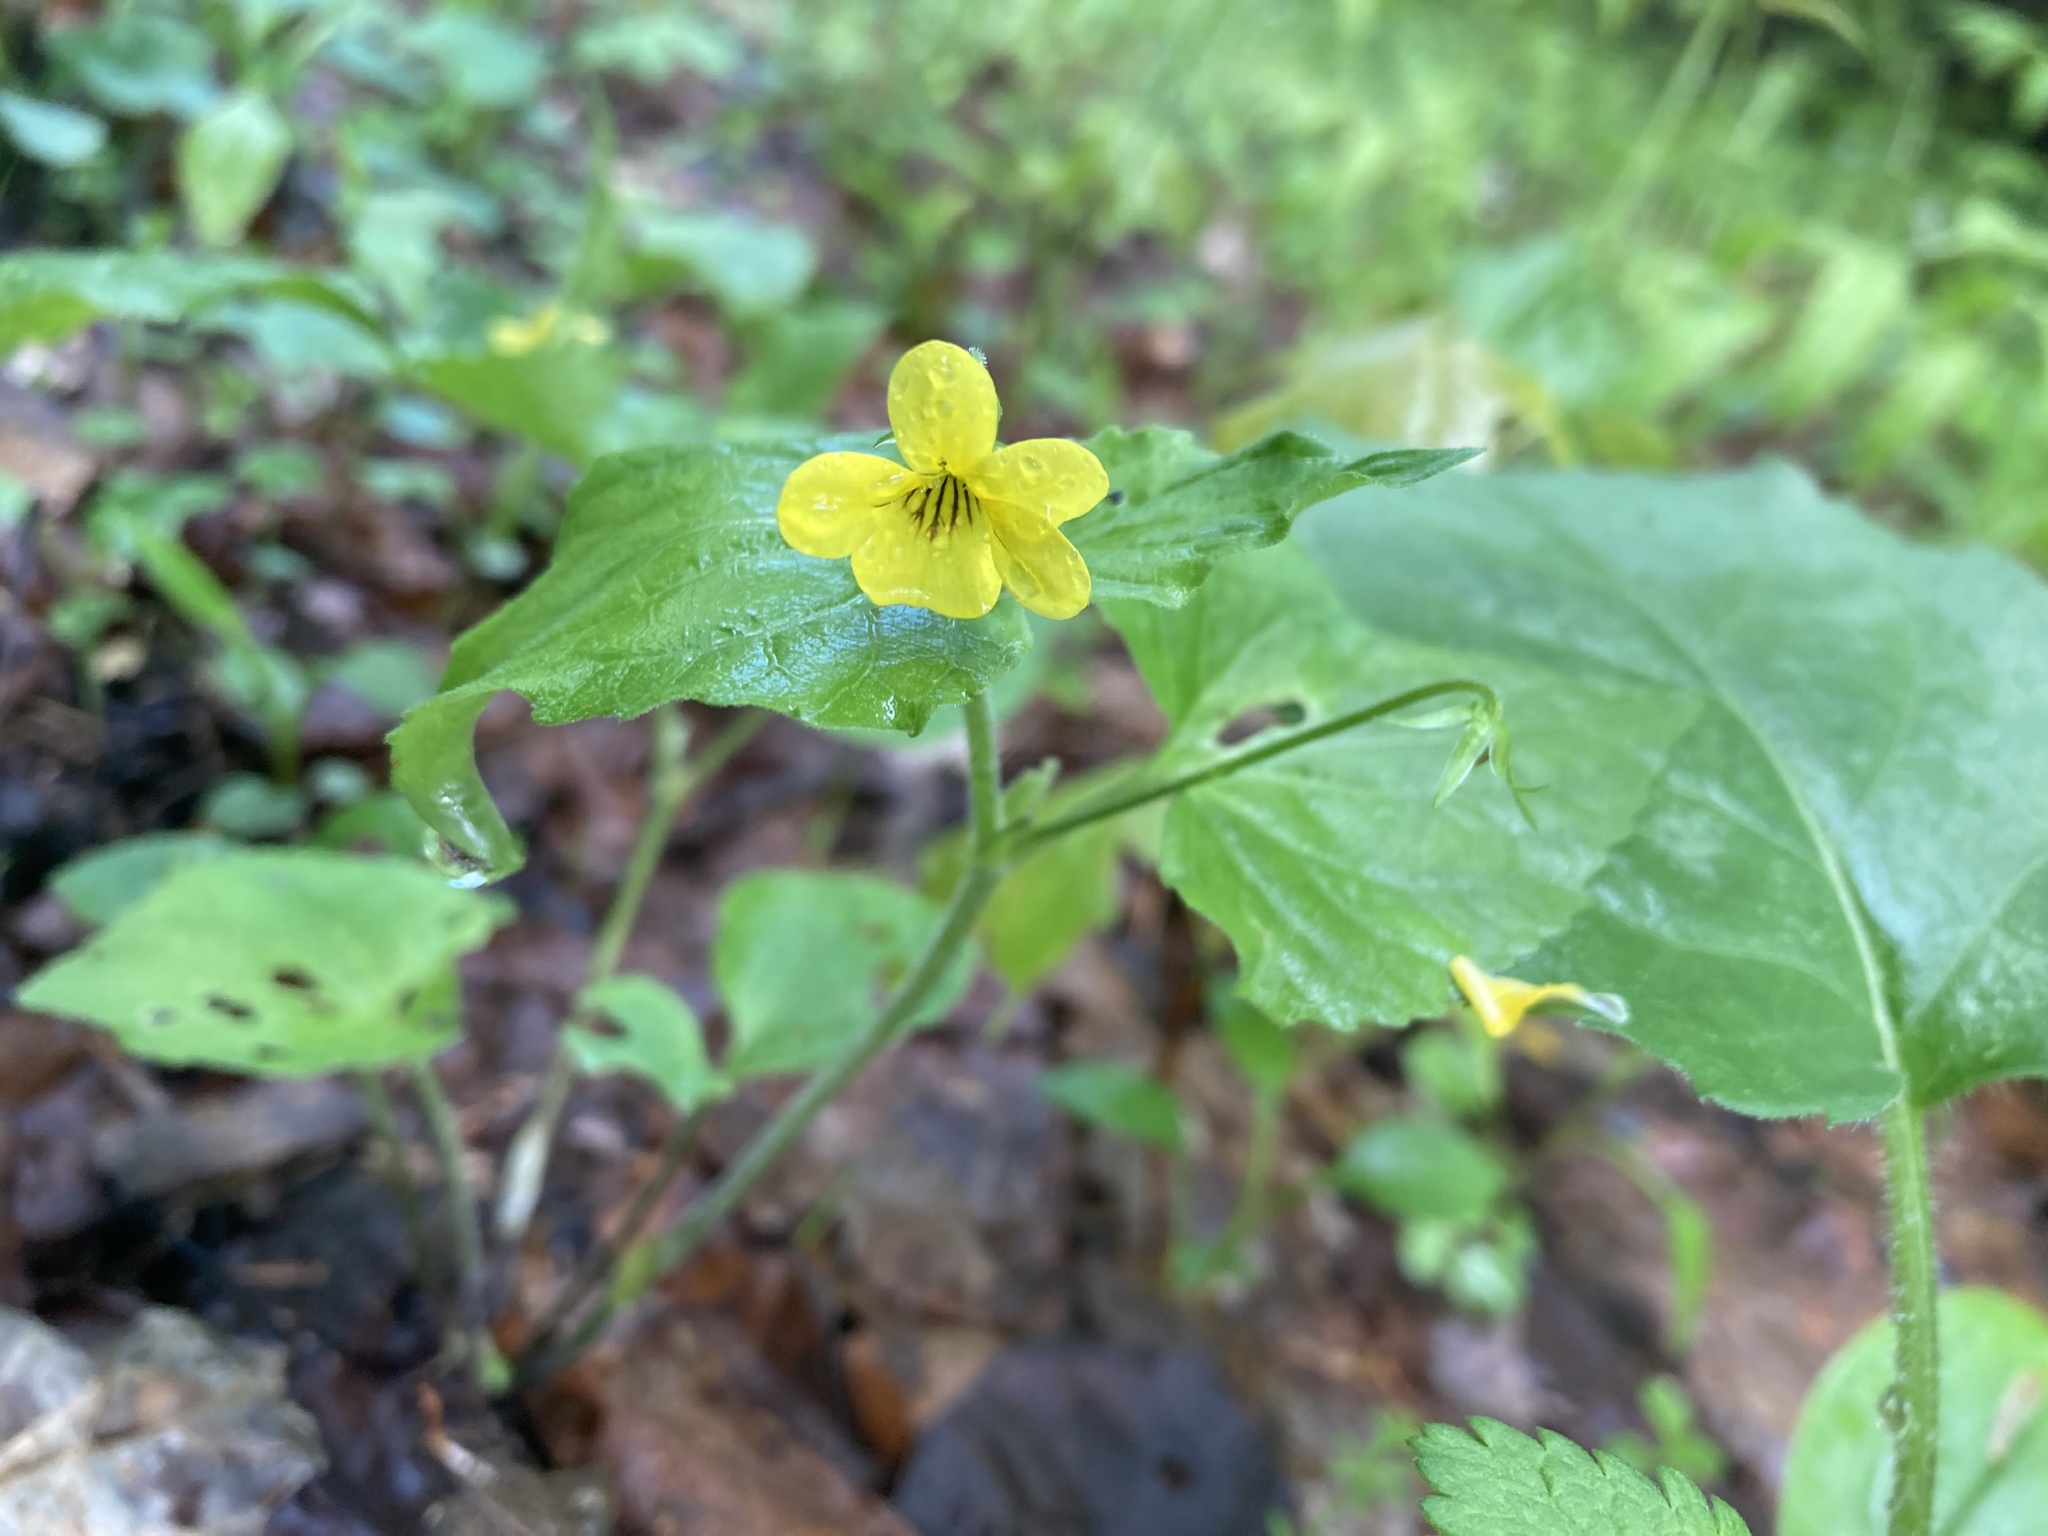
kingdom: Plantae
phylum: Tracheophyta
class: Magnoliopsida
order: Malpighiales
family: Violaceae
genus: Viola
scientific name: Viola eriocarpa
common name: Smooth yellow violet
